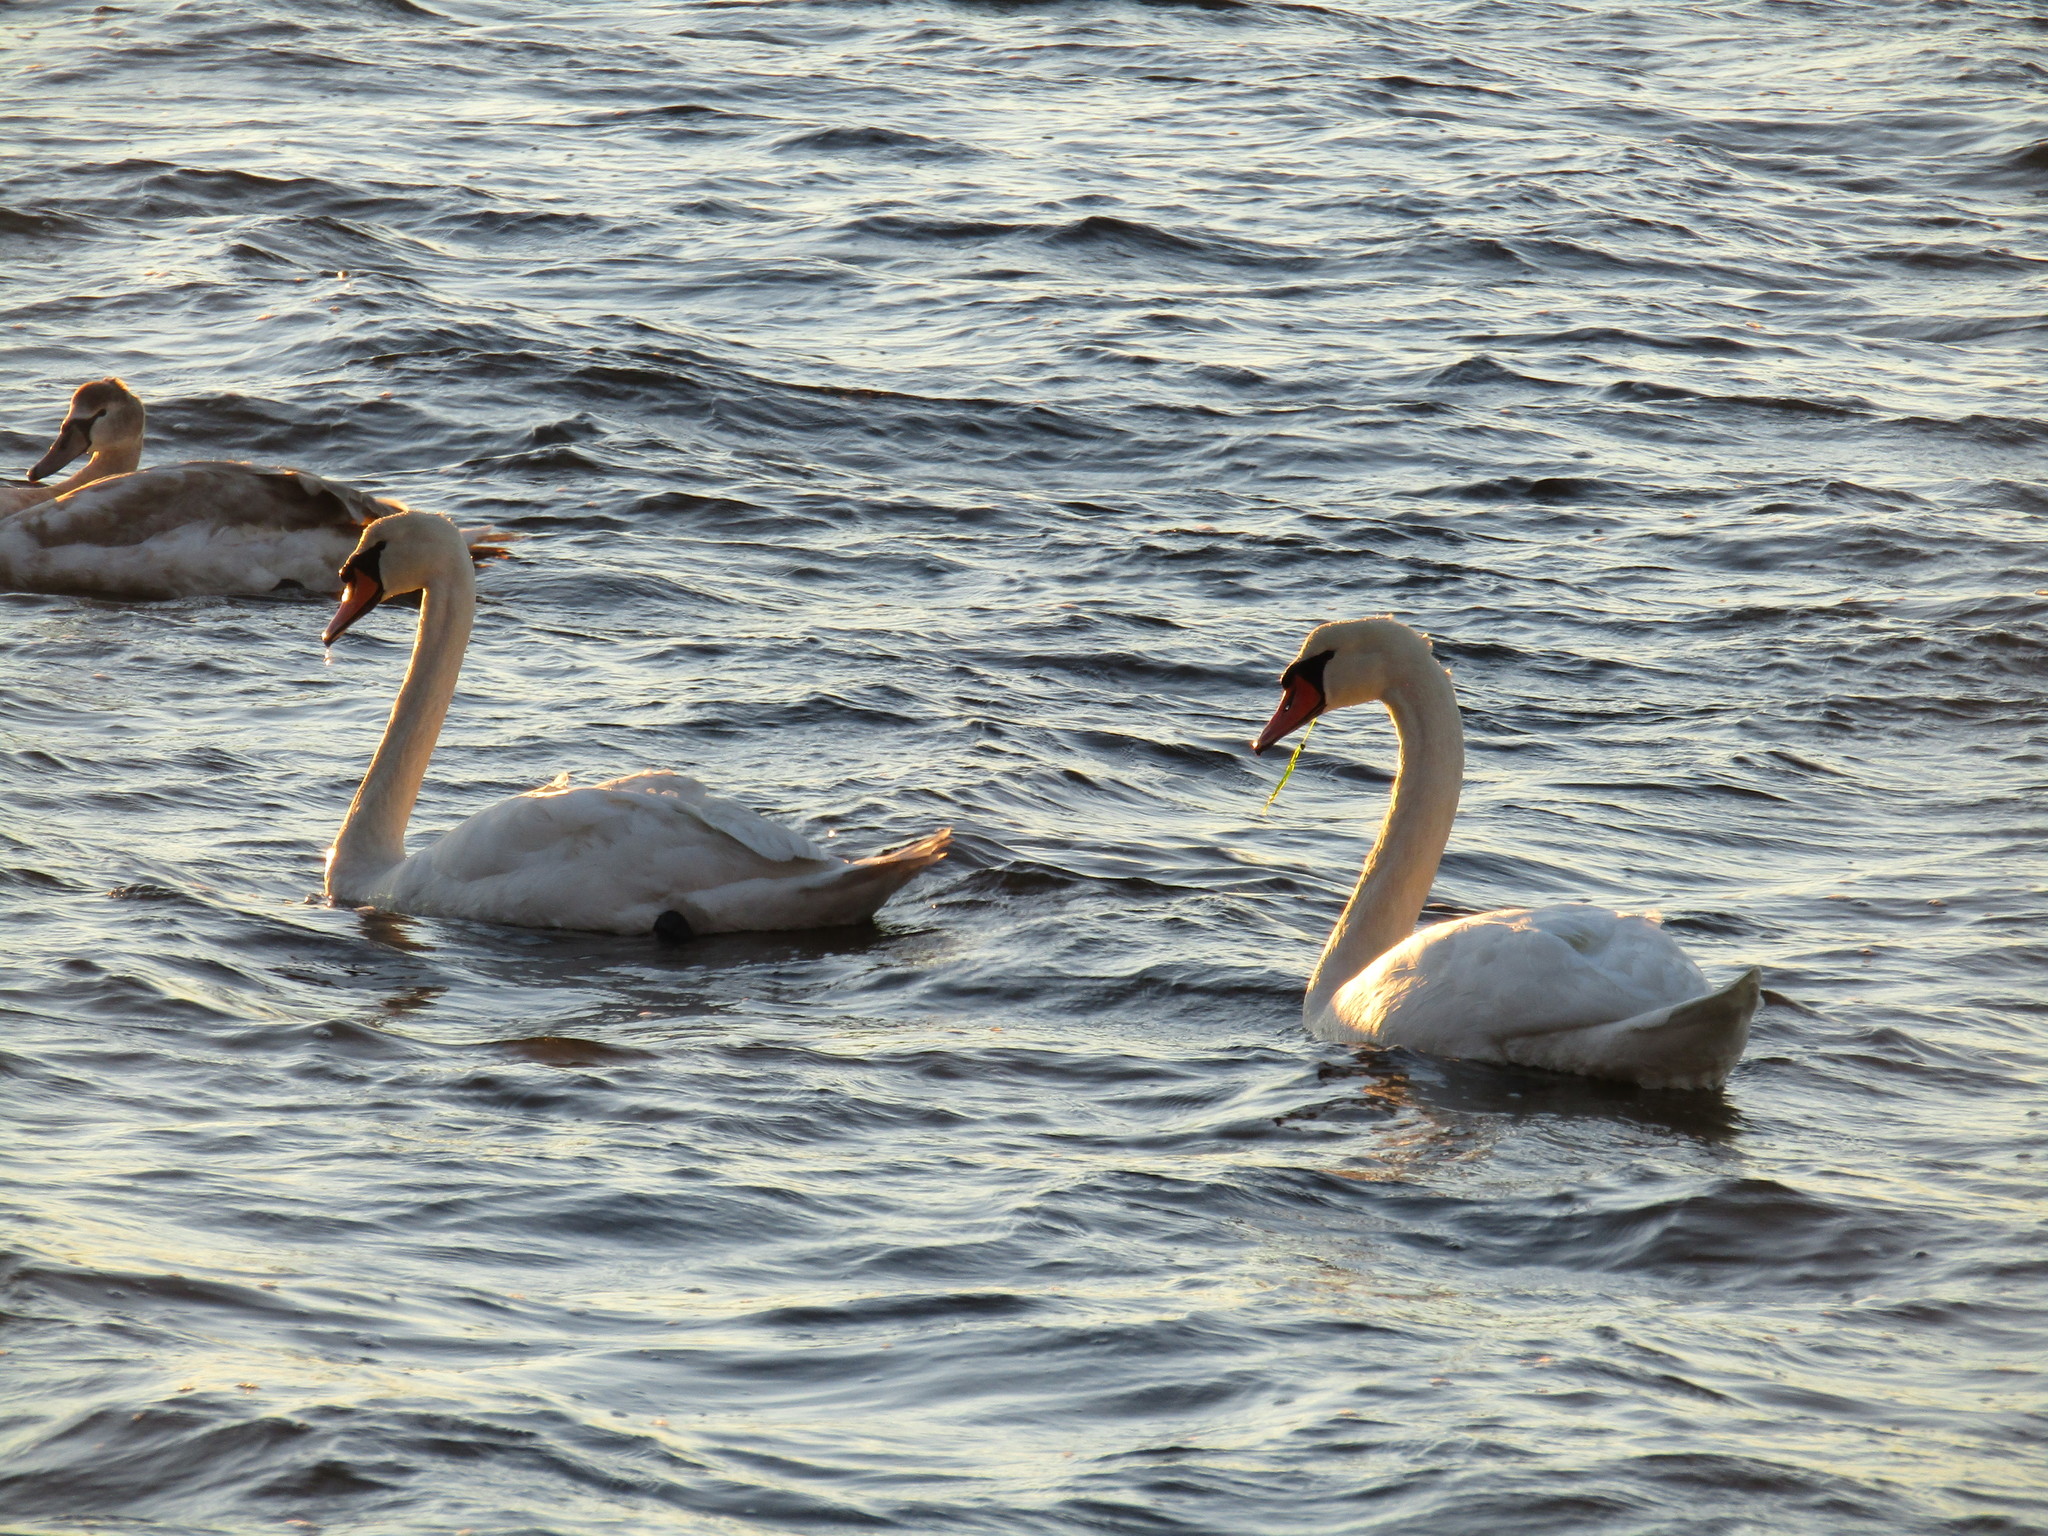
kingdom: Animalia
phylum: Chordata
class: Aves
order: Anseriformes
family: Anatidae
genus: Cygnus
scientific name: Cygnus olor
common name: Mute swan
